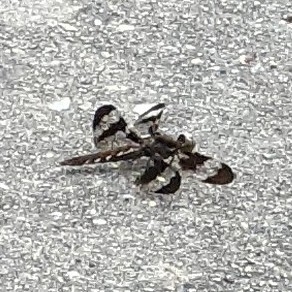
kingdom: Animalia
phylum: Arthropoda
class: Insecta
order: Odonata
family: Libellulidae
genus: Plathemis
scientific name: Plathemis lydia
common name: Common whitetail
